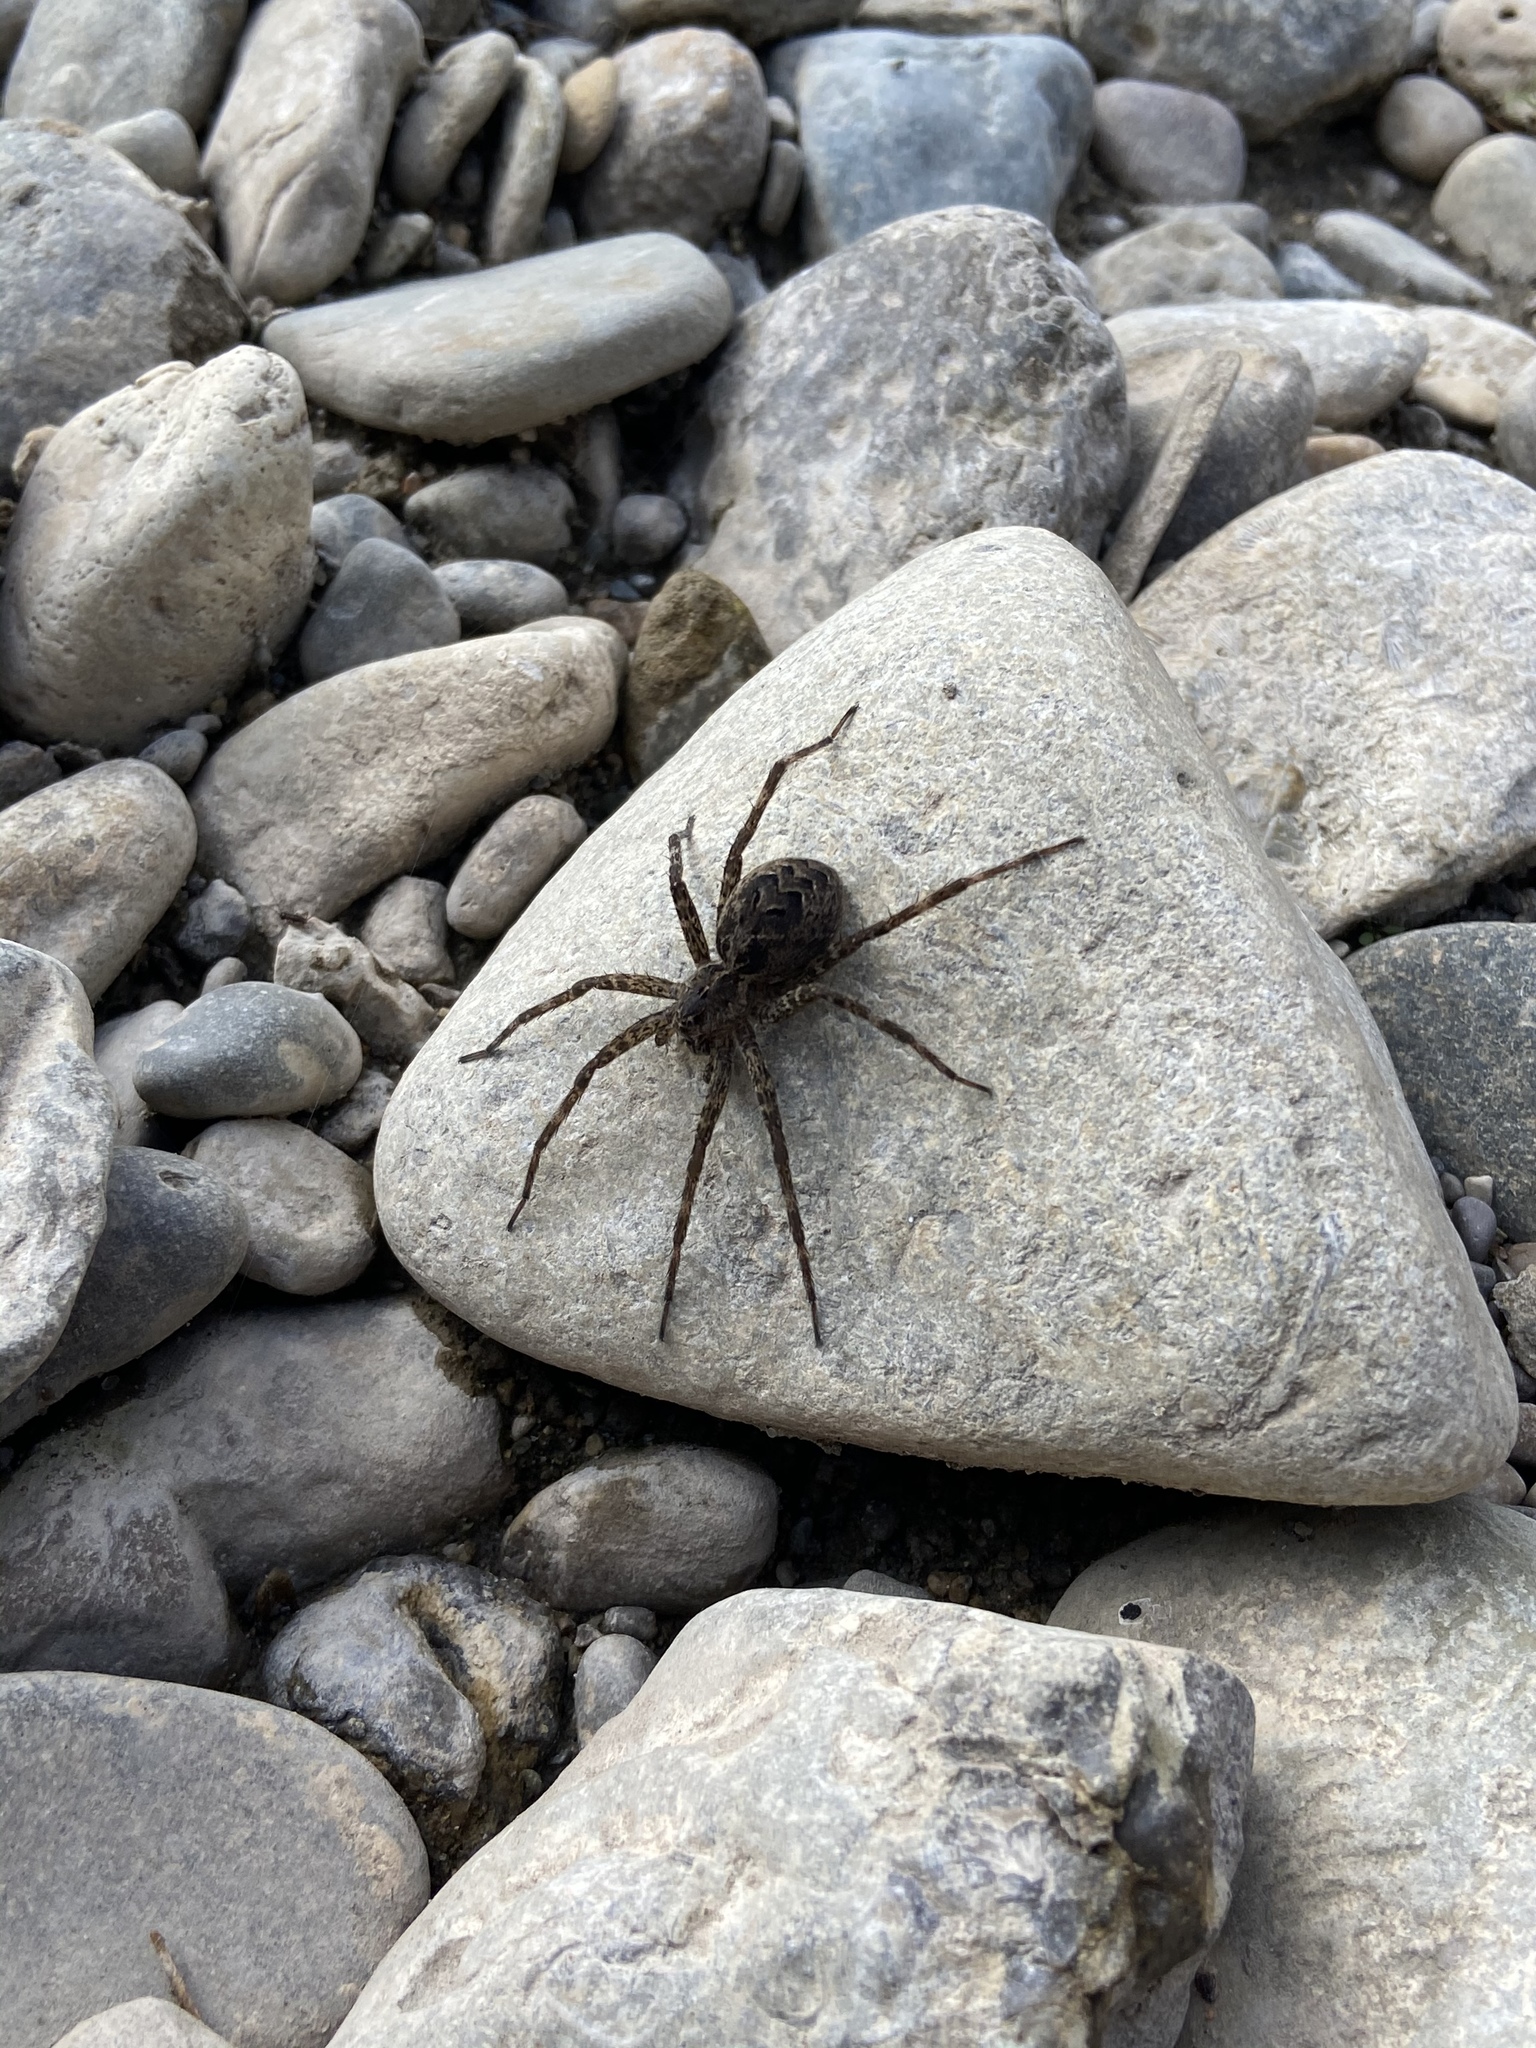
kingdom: Animalia
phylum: Arthropoda
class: Arachnida
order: Araneae
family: Pisauridae
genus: Dolomedes
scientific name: Dolomedes scriptus
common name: Striped fishing spider
